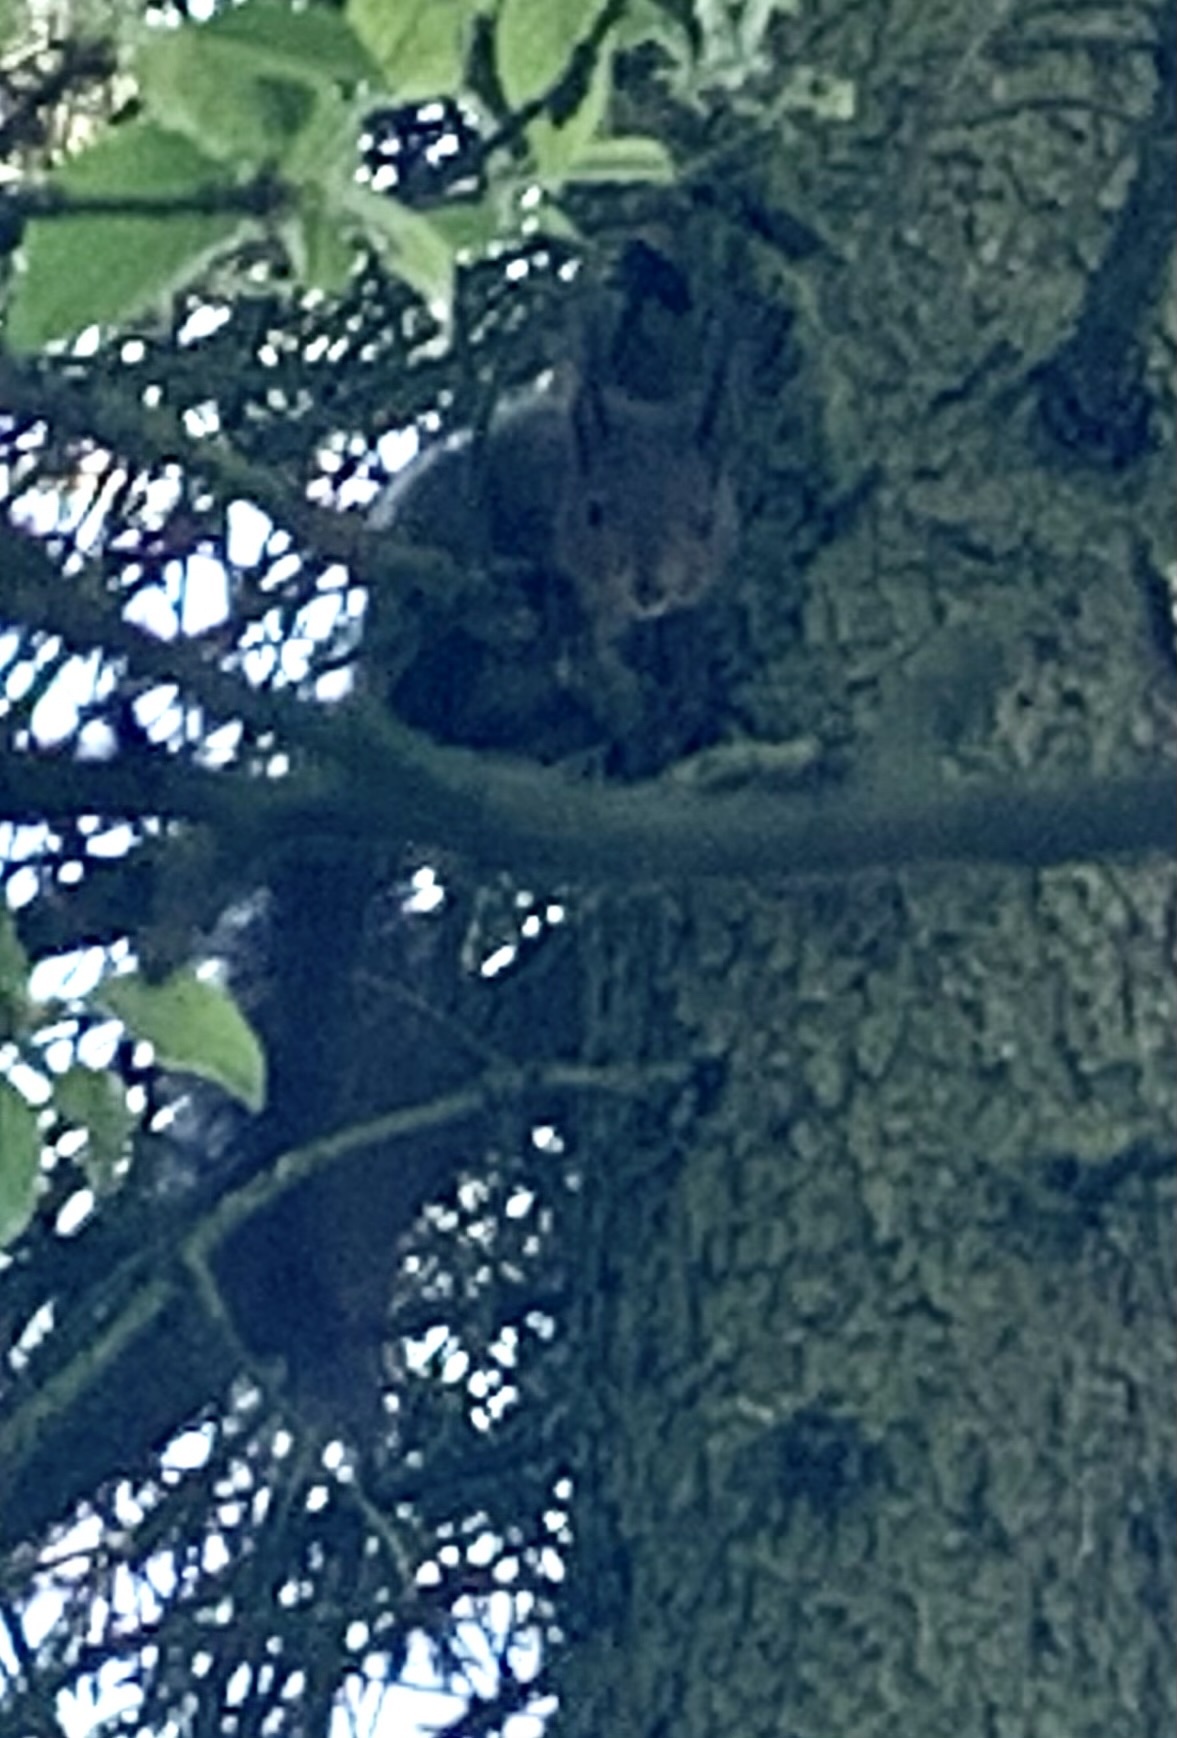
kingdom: Animalia
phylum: Chordata
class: Mammalia
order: Rodentia
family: Sciuridae
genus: Sciurus
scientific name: Sciurus vulgaris
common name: Eurasian red squirrel
